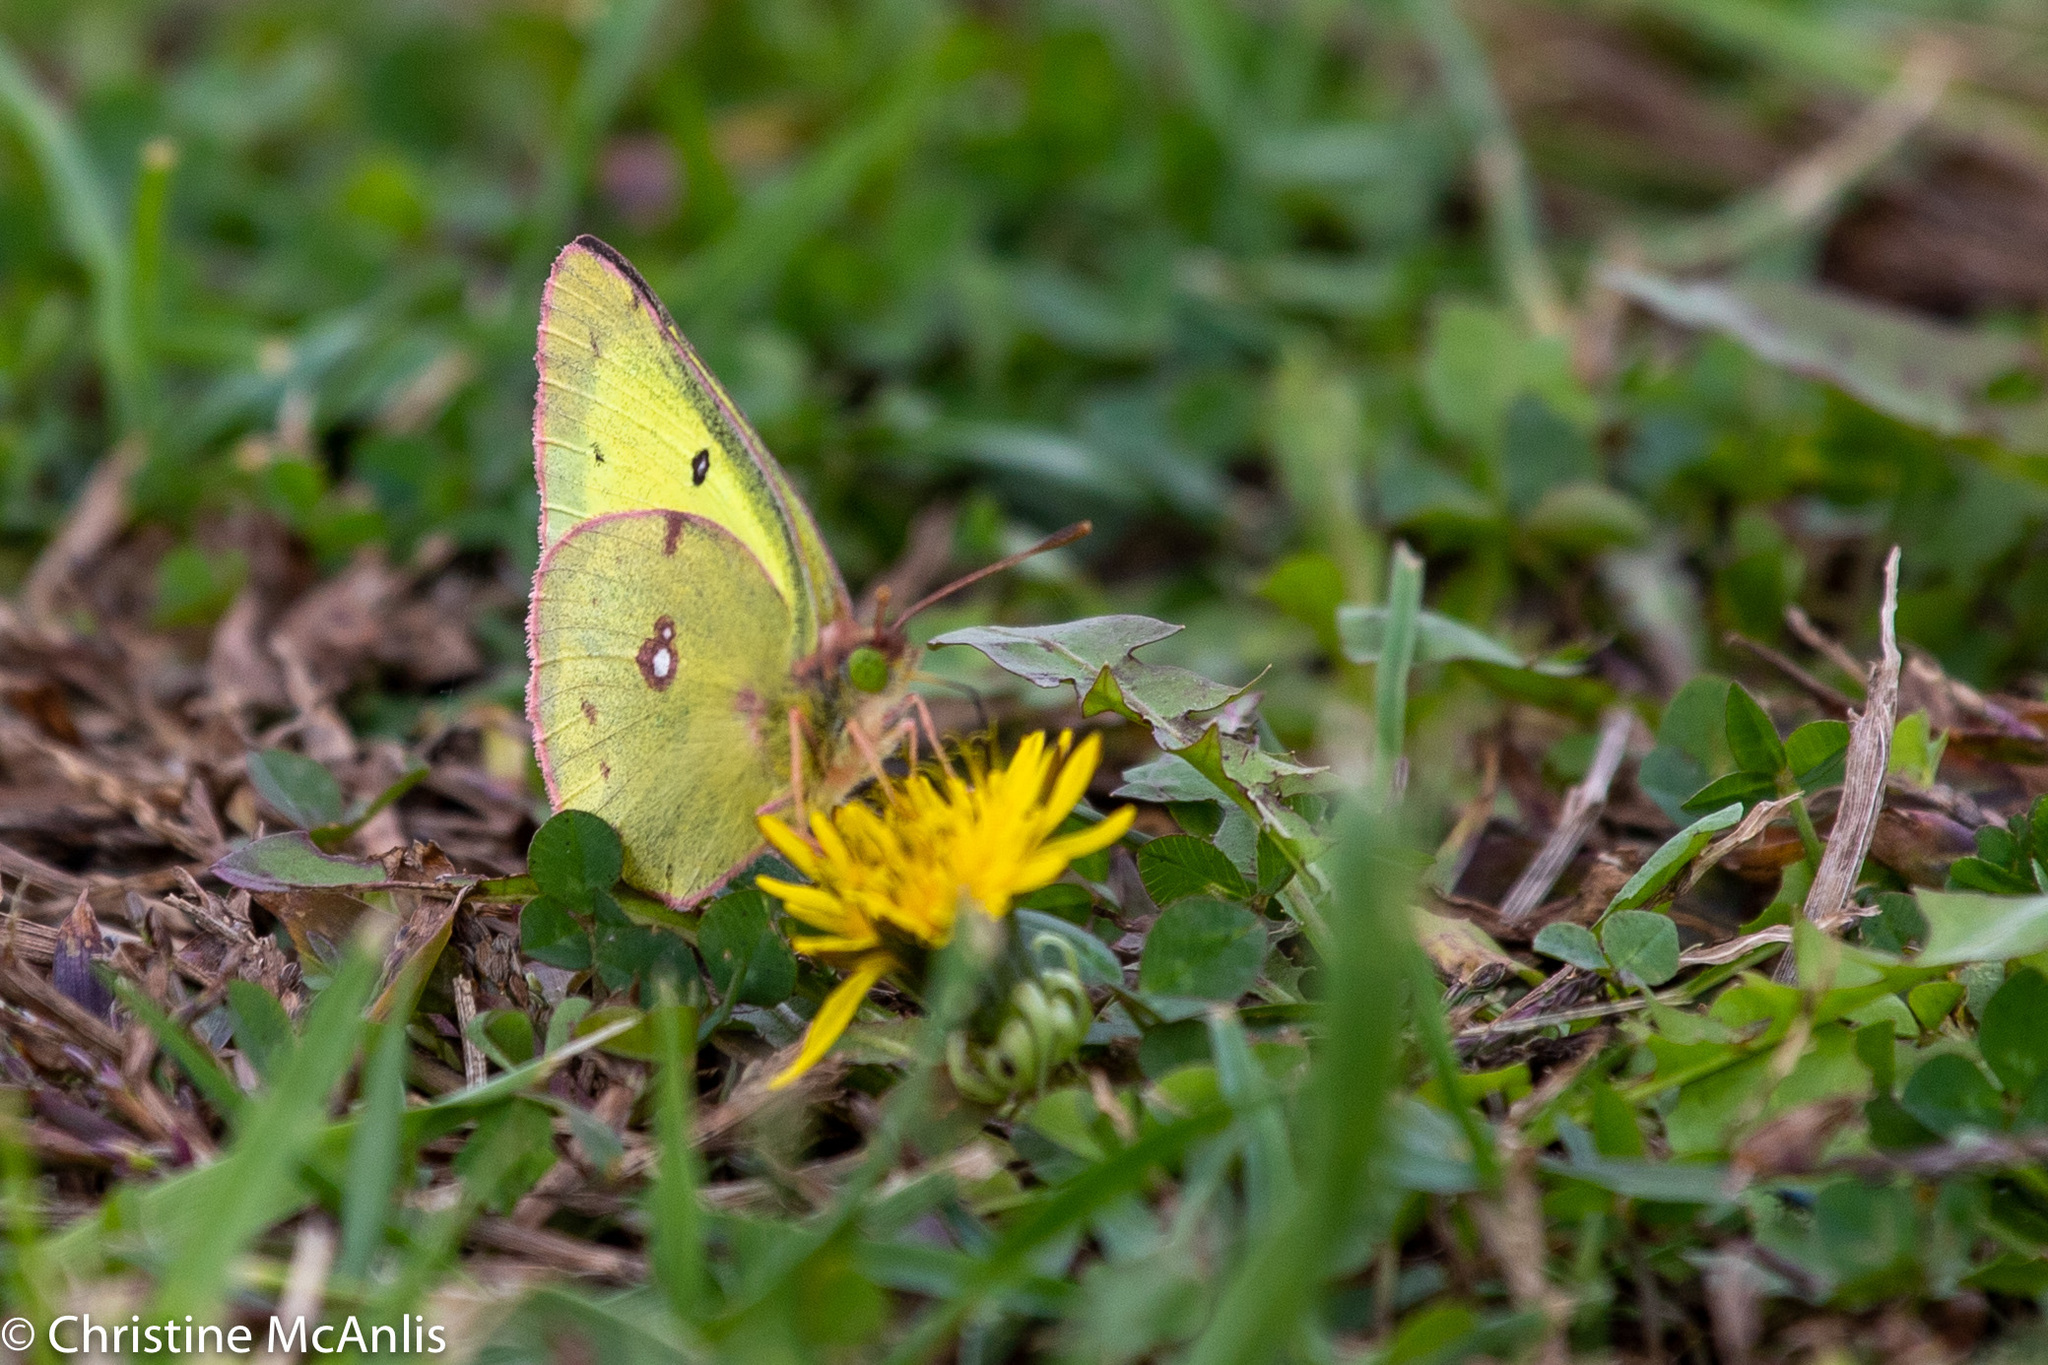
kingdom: Animalia
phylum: Arthropoda
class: Insecta
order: Lepidoptera
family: Pieridae
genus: Colias
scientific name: Colias philodice
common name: Clouded sulphur
